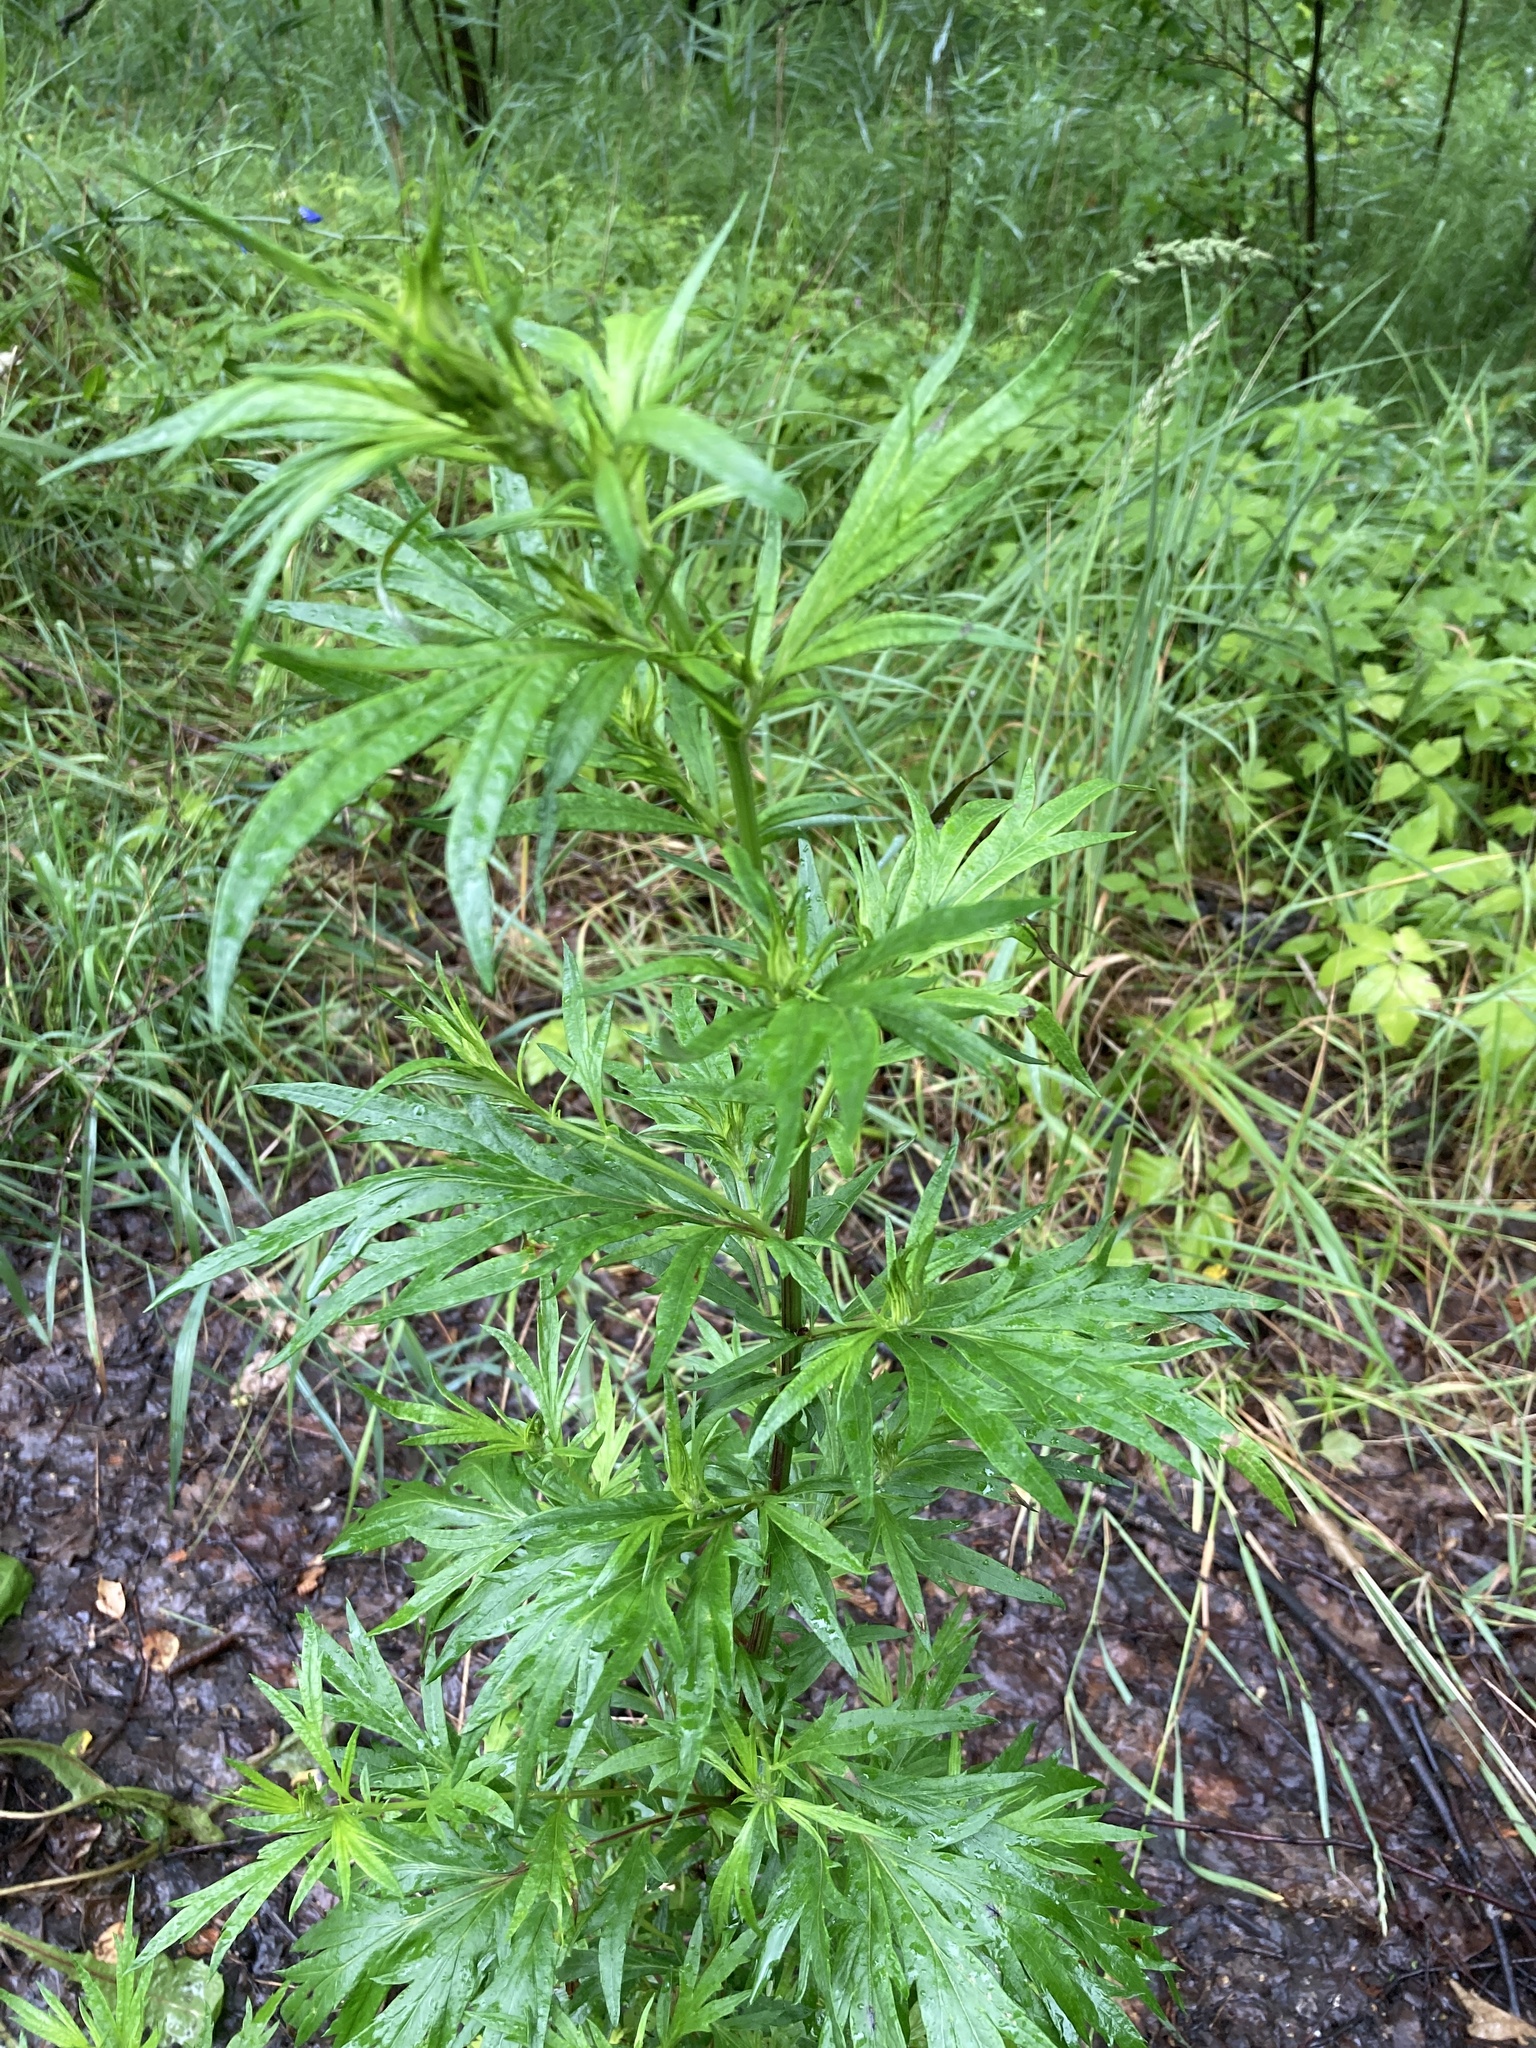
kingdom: Plantae
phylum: Tracheophyta
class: Magnoliopsida
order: Asterales
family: Asteraceae
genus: Artemisia
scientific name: Artemisia vulgaris
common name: Mugwort
